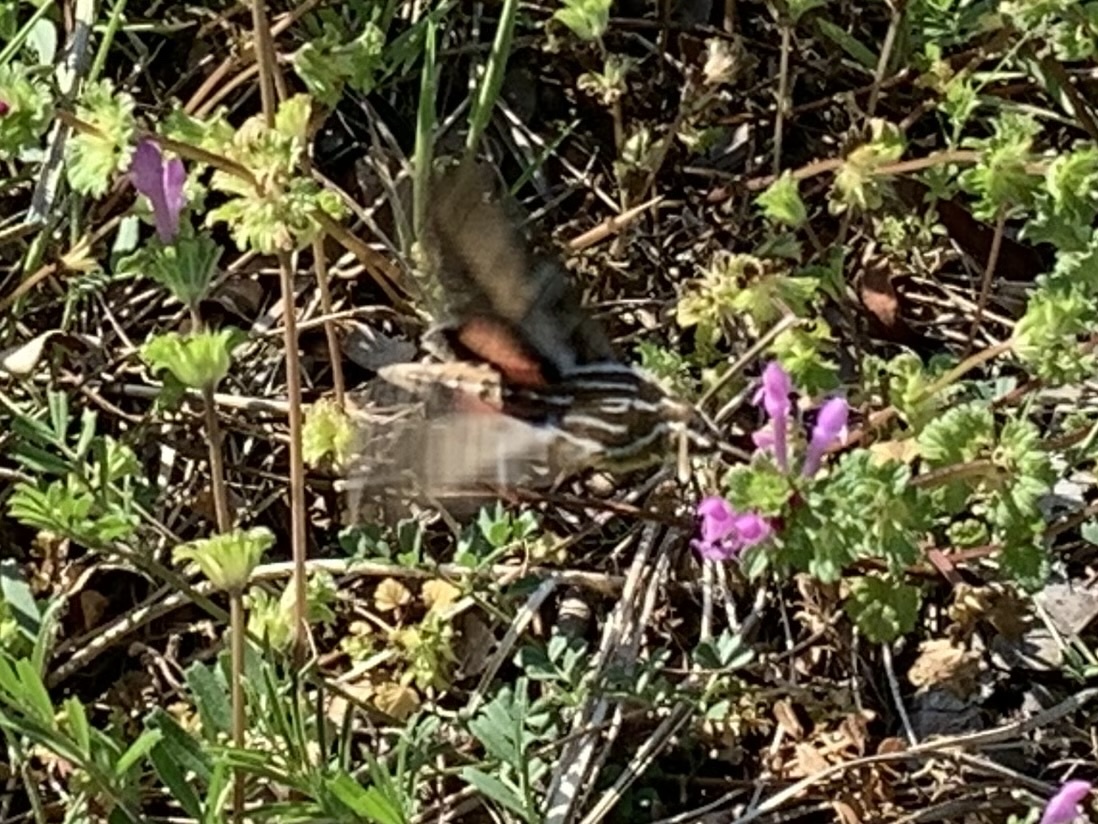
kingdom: Animalia
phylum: Arthropoda
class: Insecta
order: Lepidoptera
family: Sphingidae
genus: Hyles
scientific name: Hyles lineata
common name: White-lined sphinx
